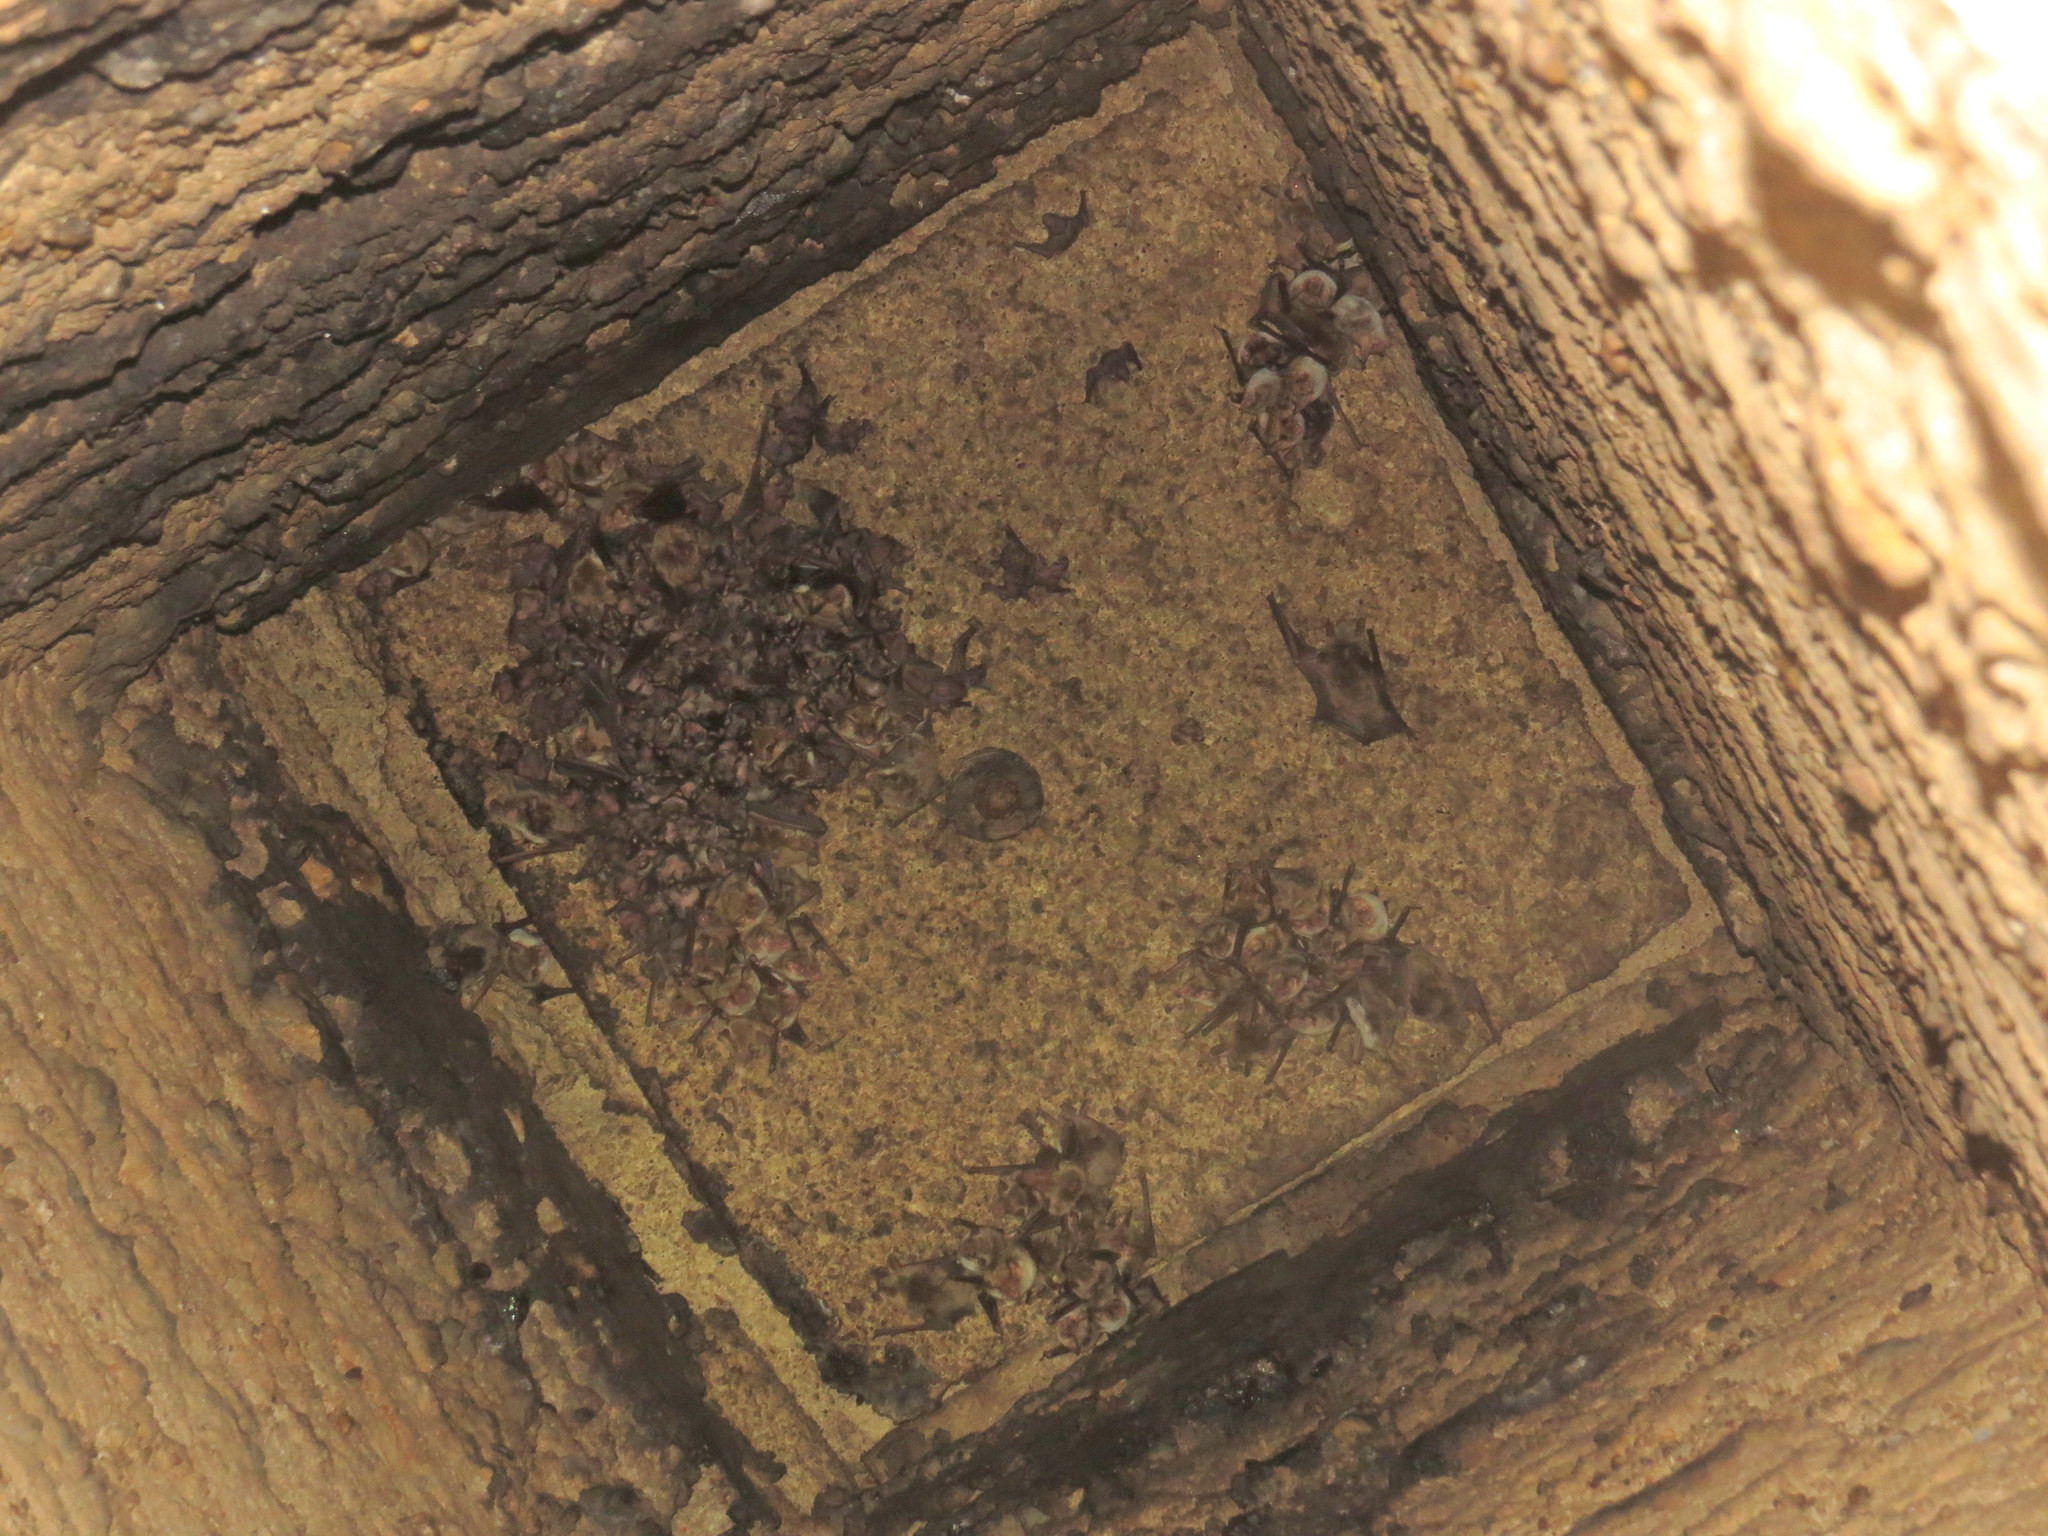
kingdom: Animalia
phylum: Chordata
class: Mammalia
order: Chiroptera
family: Vespertilionidae
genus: Myotis
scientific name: Myotis myotis
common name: Greater mouse-eared bat
